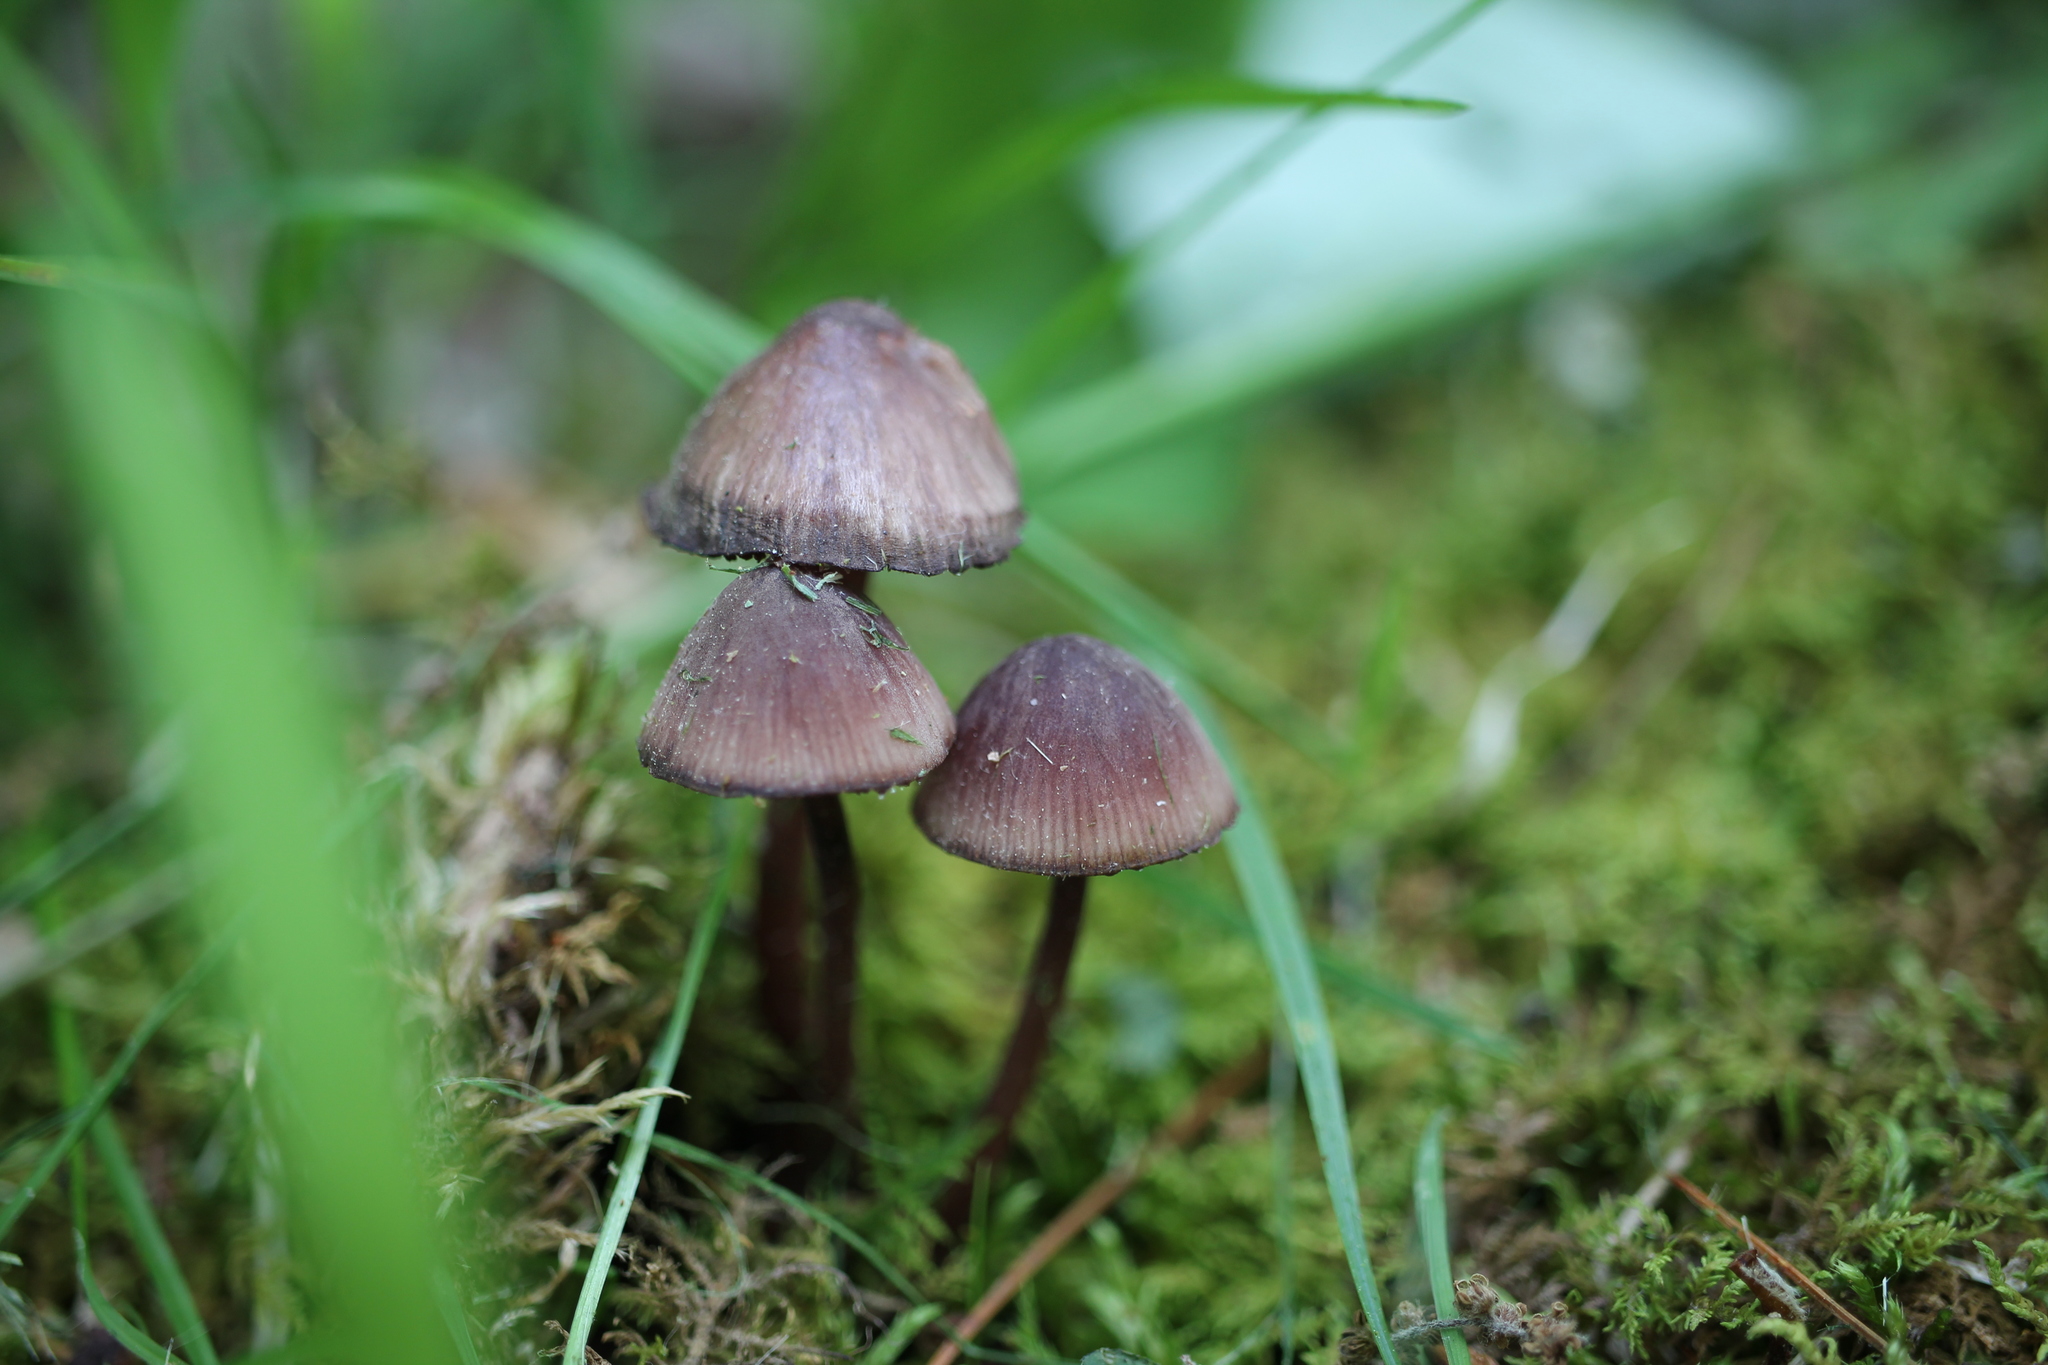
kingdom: Fungi
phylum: Basidiomycota
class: Agaricomycetes
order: Agaricales
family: Mycenaceae
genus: Mycena
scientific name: Mycena sanguinolenta
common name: Bleeding bonnet
